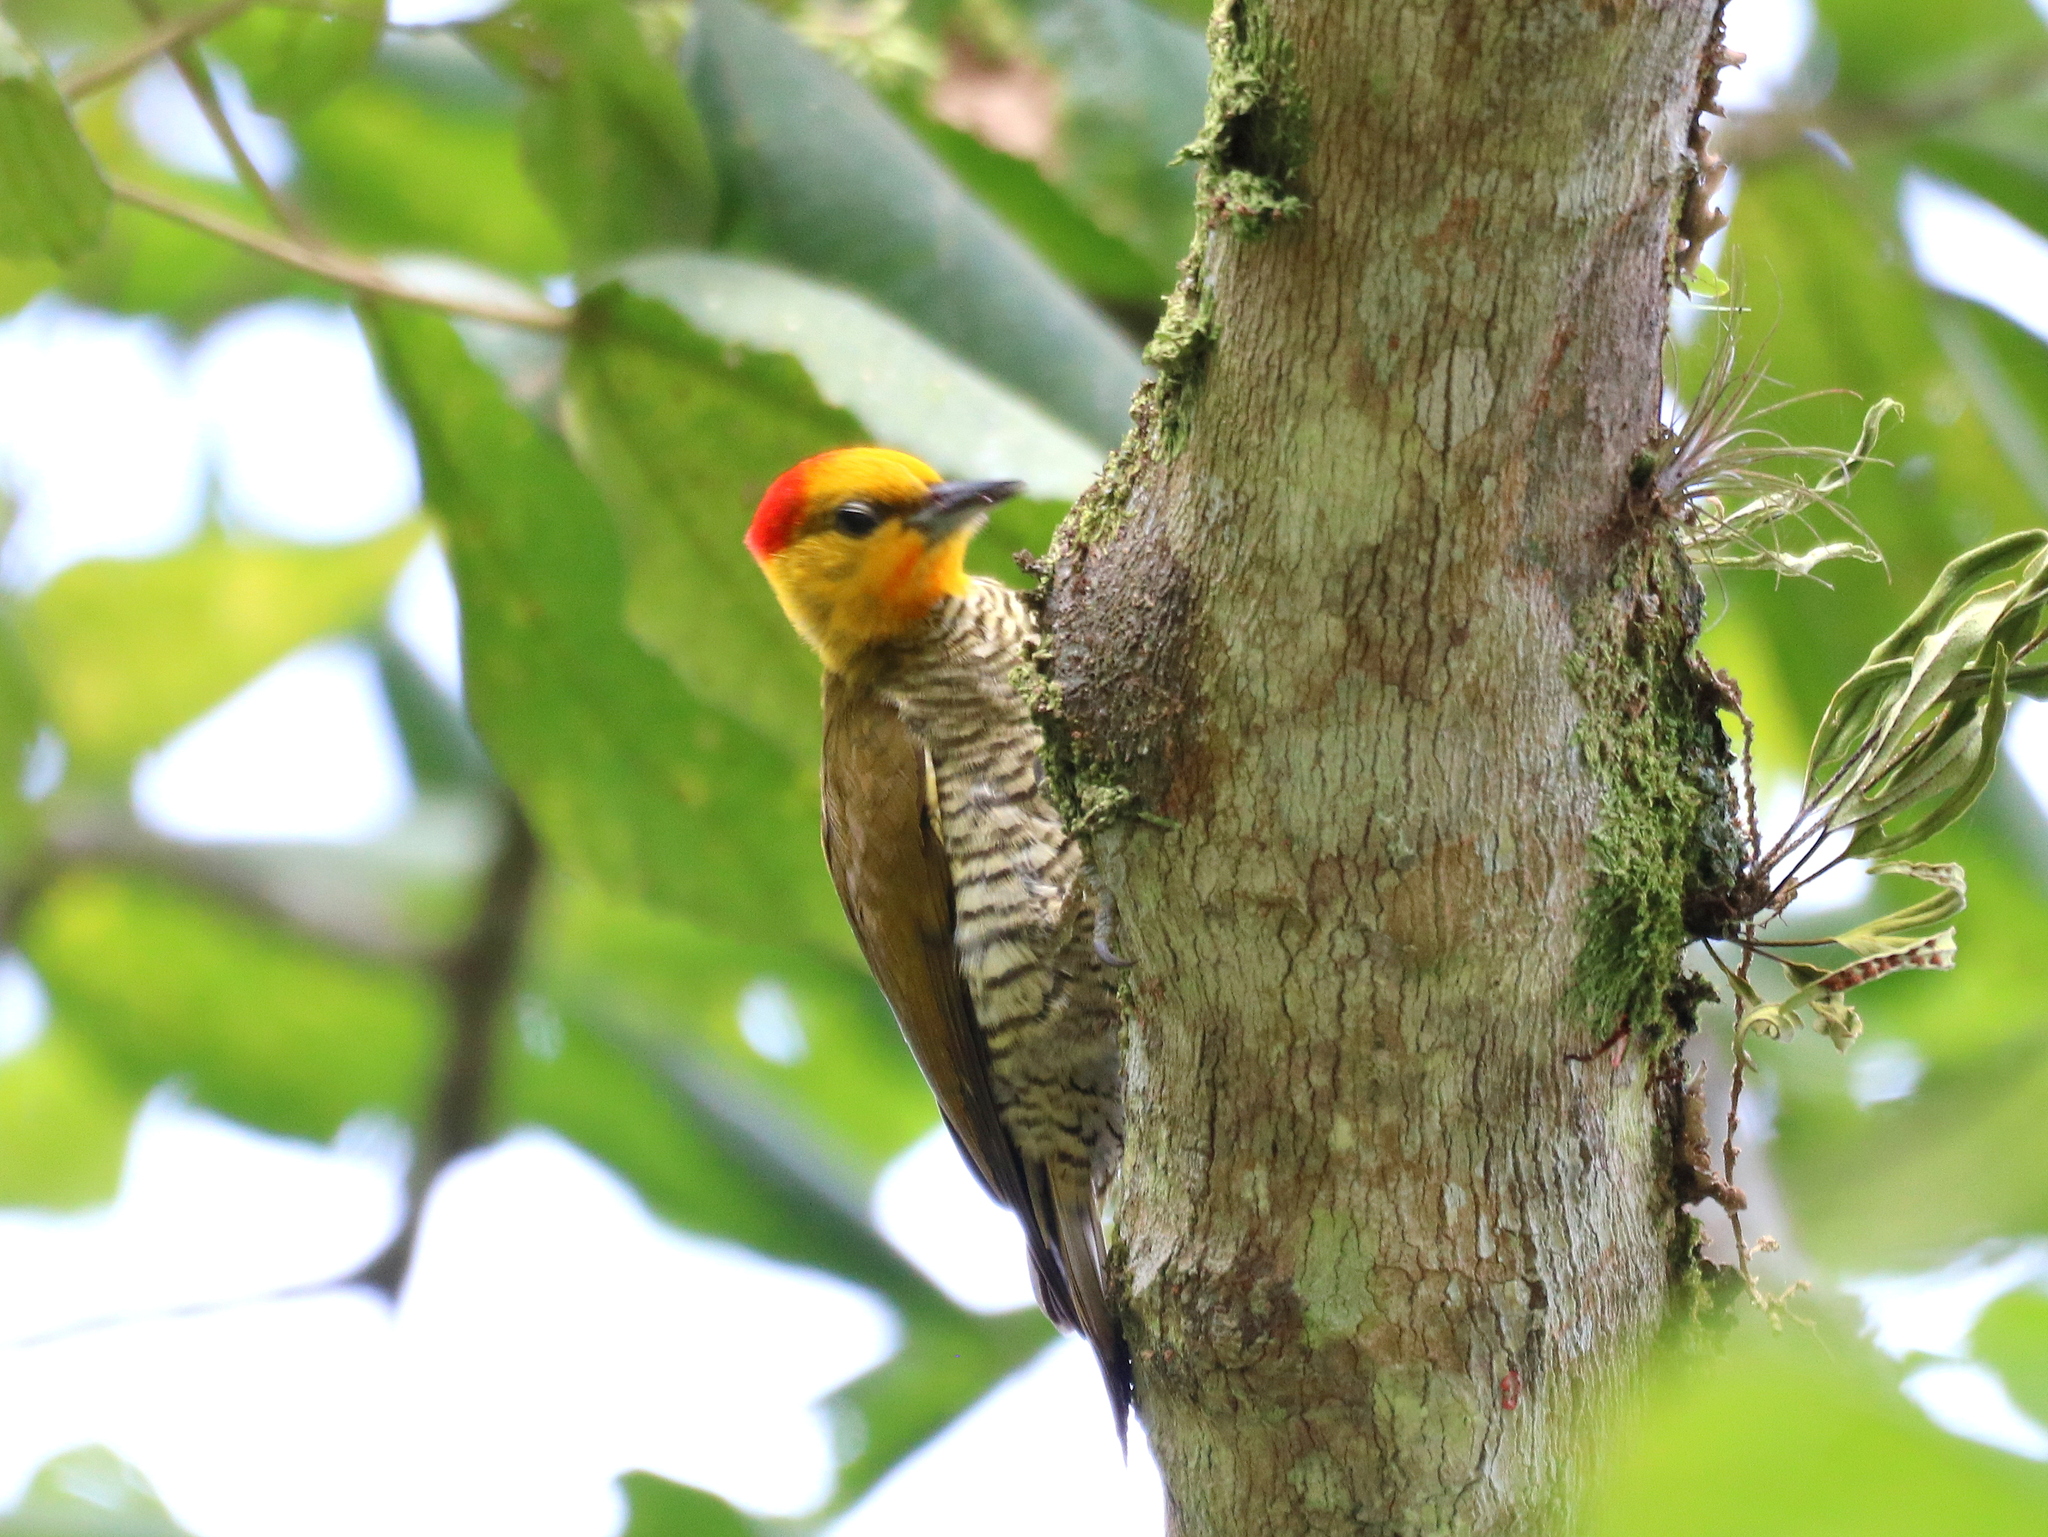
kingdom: Animalia
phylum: Chordata
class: Aves
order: Piciformes
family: Picidae
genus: Piculus
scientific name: Piculus flavigula
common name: Yellow-throated woodpecker
